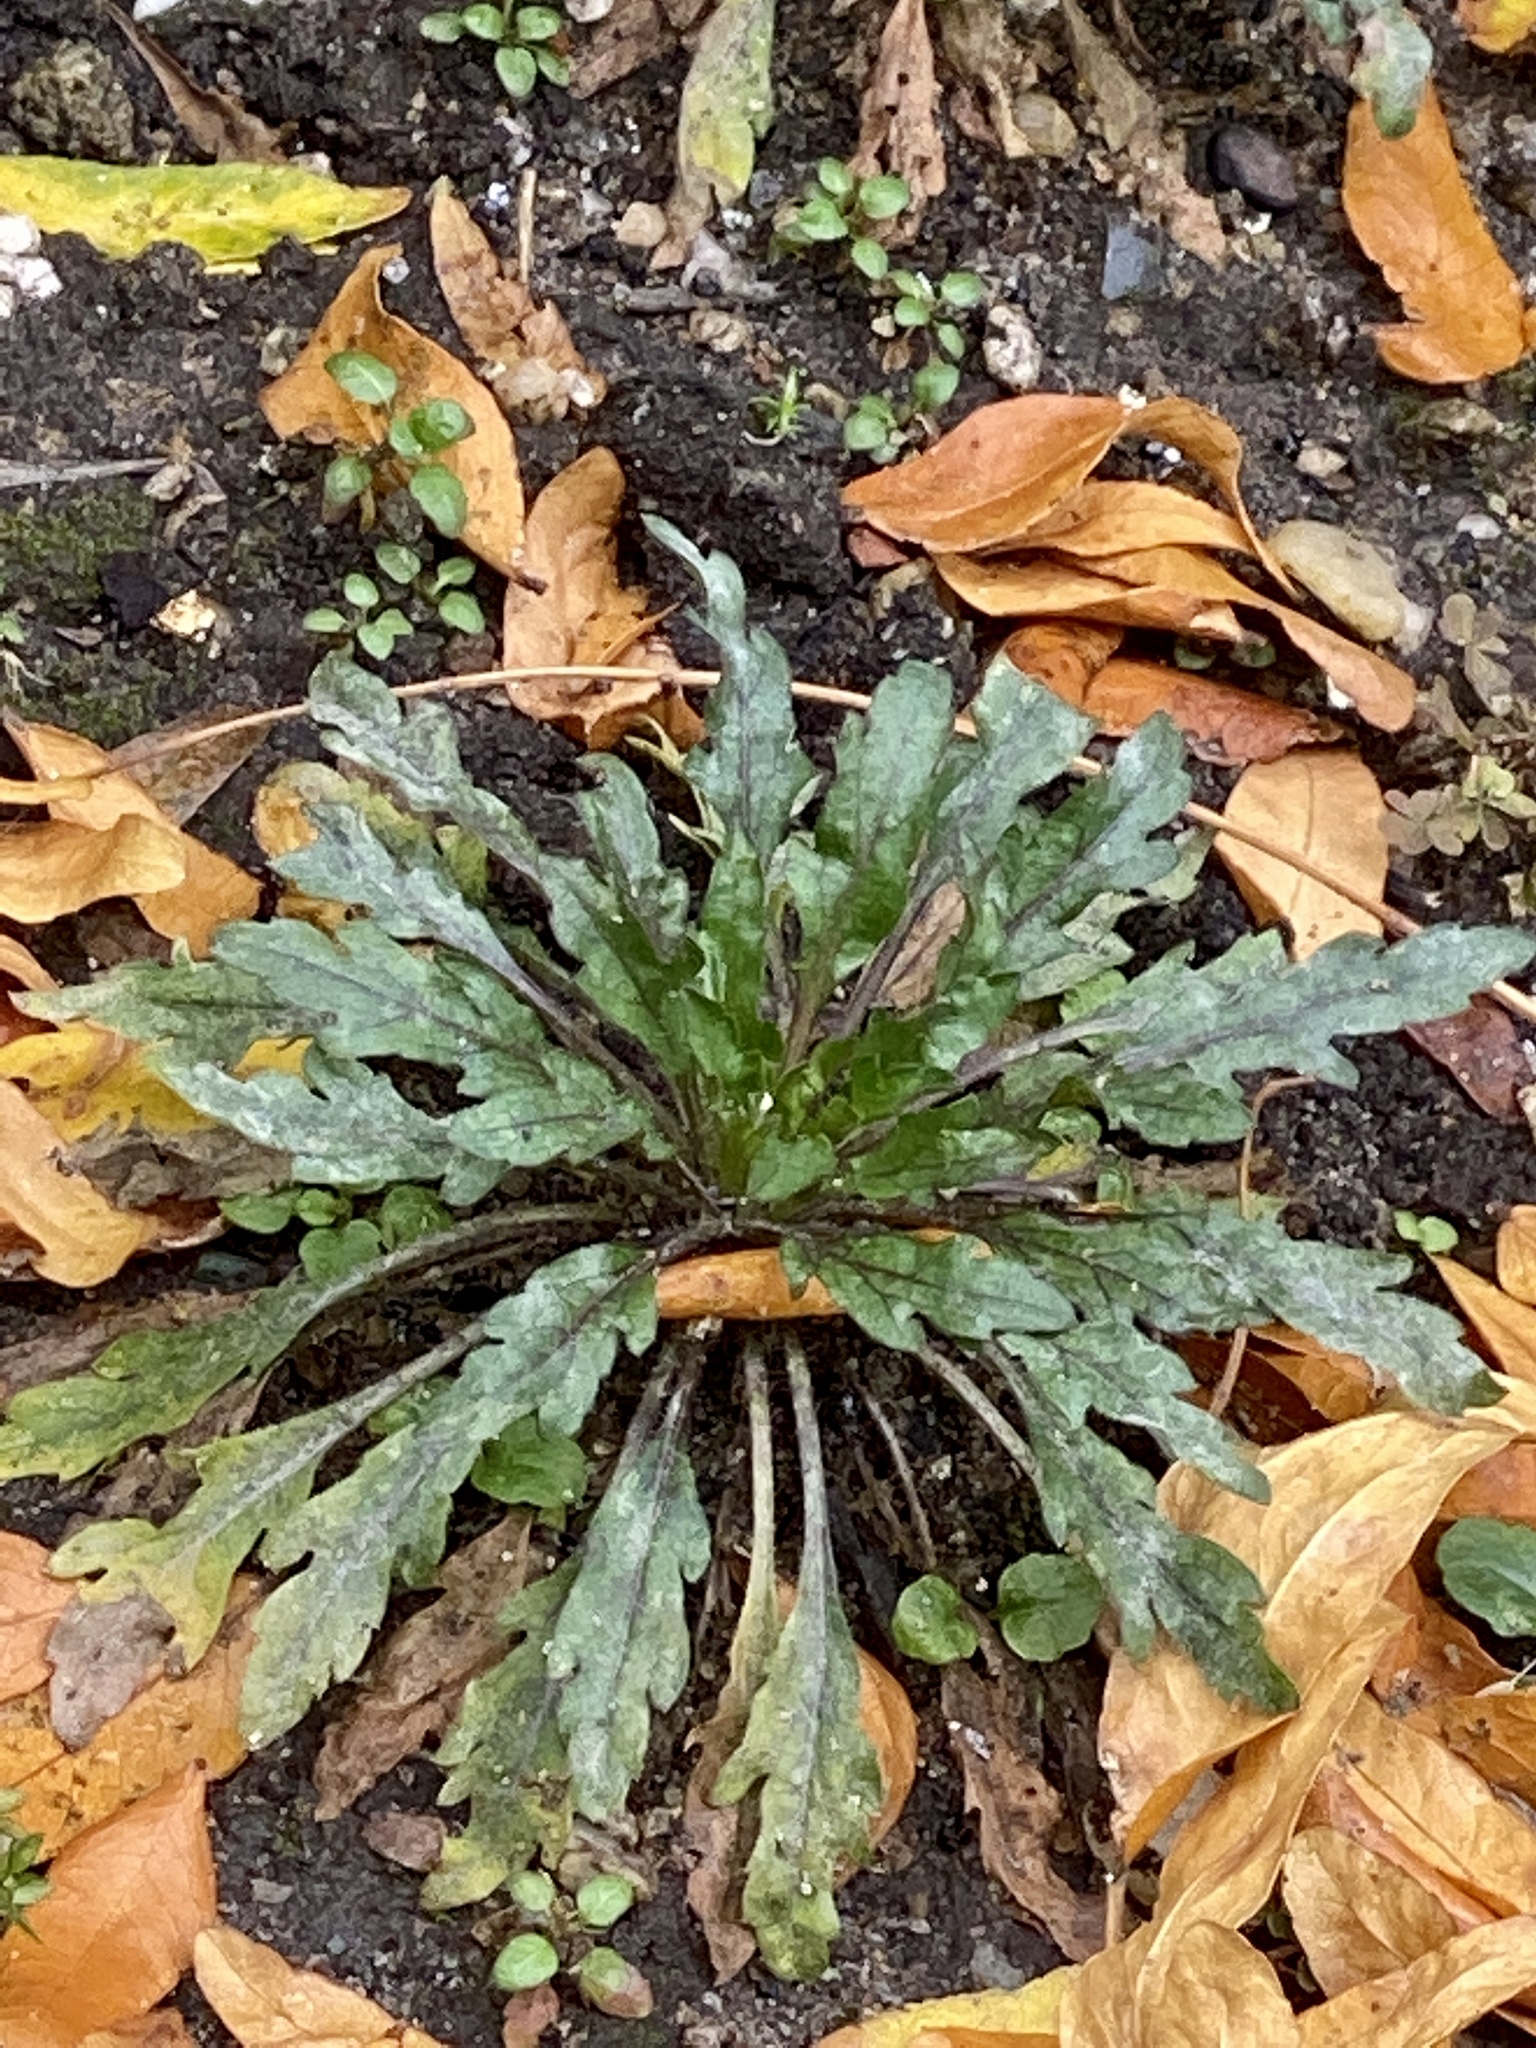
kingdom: Plantae
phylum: Tracheophyta
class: Magnoliopsida
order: Asterales
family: Asteraceae
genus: Erigeron
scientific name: Erigeron canadensis
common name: Canadian fleabane
